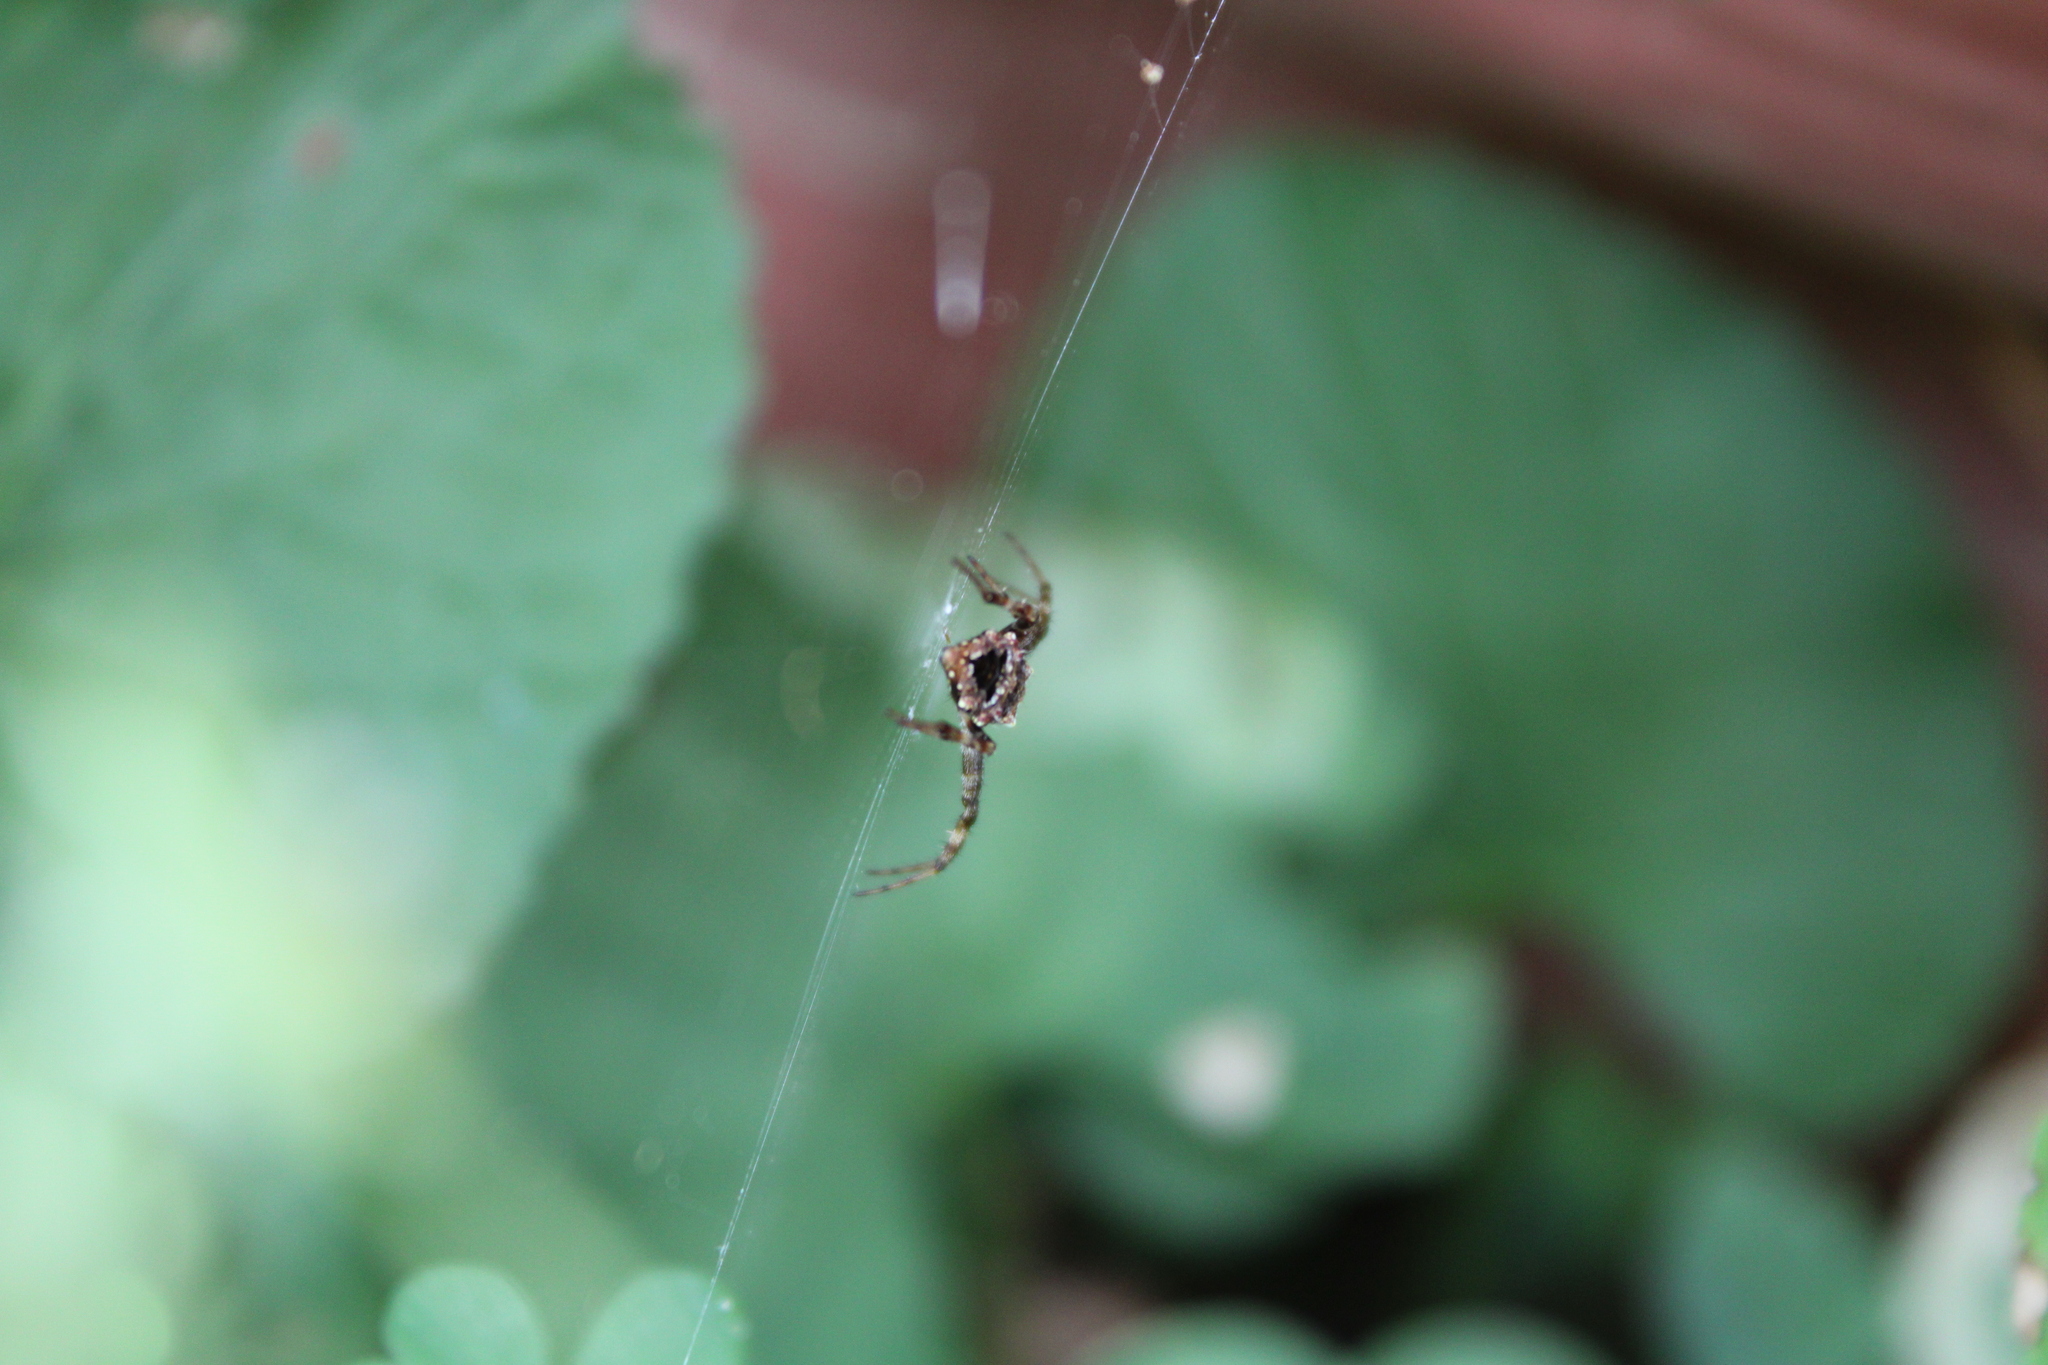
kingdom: Animalia
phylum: Arthropoda
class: Arachnida
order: Araneae
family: Araneidae
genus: Gea
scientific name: Gea heptagon
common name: Orb weavers
